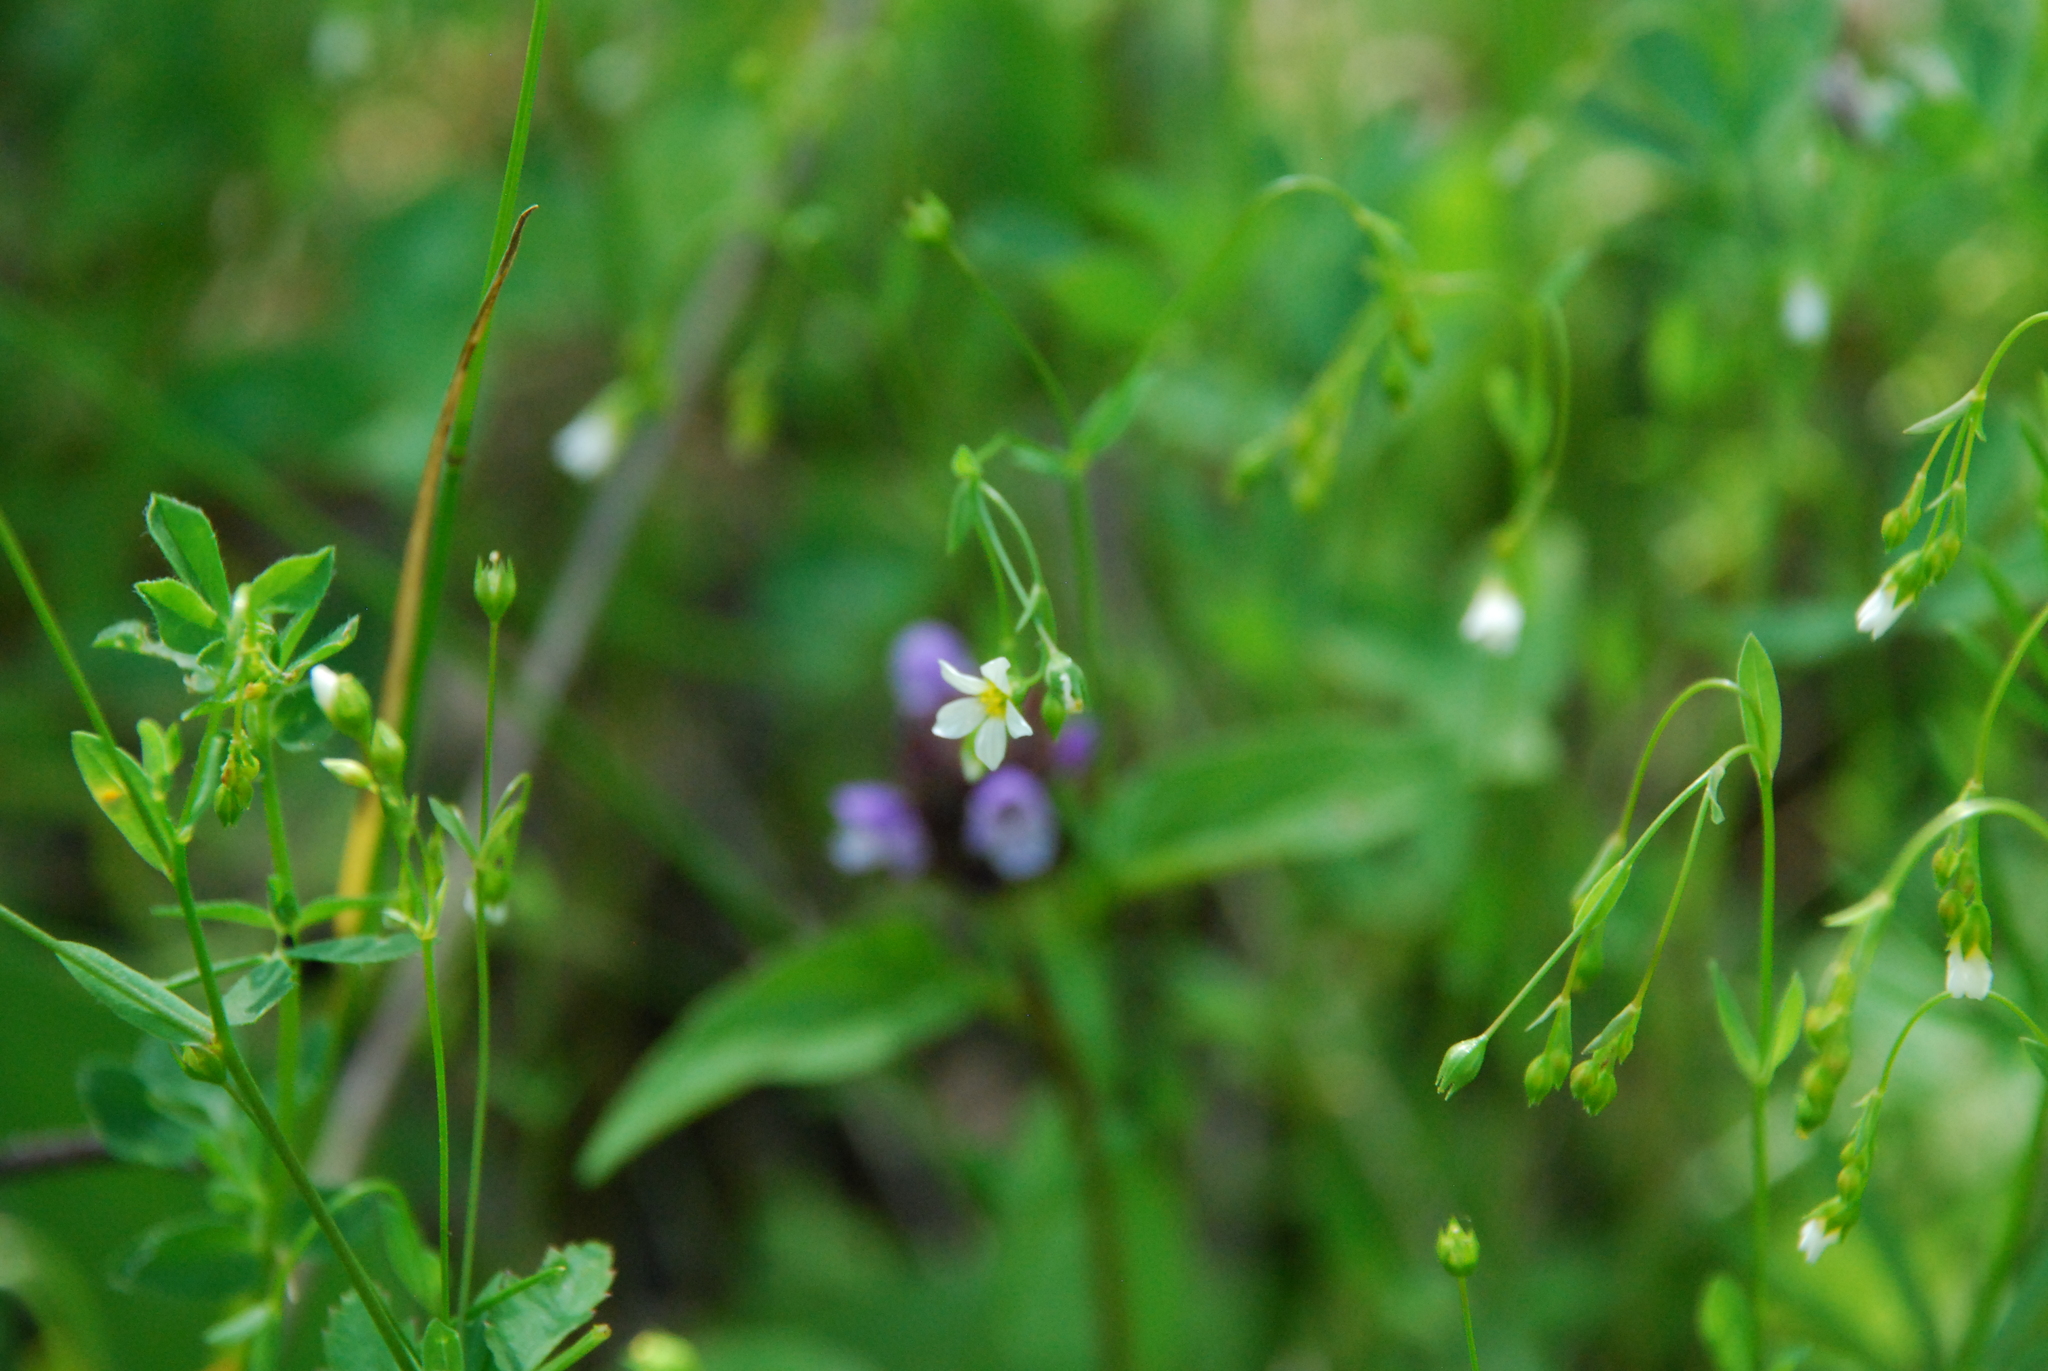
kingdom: Plantae
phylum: Tracheophyta
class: Magnoliopsida
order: Malpighiales
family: Linaceae
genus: Linum
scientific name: Linum catharticum
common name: Fairy flax
